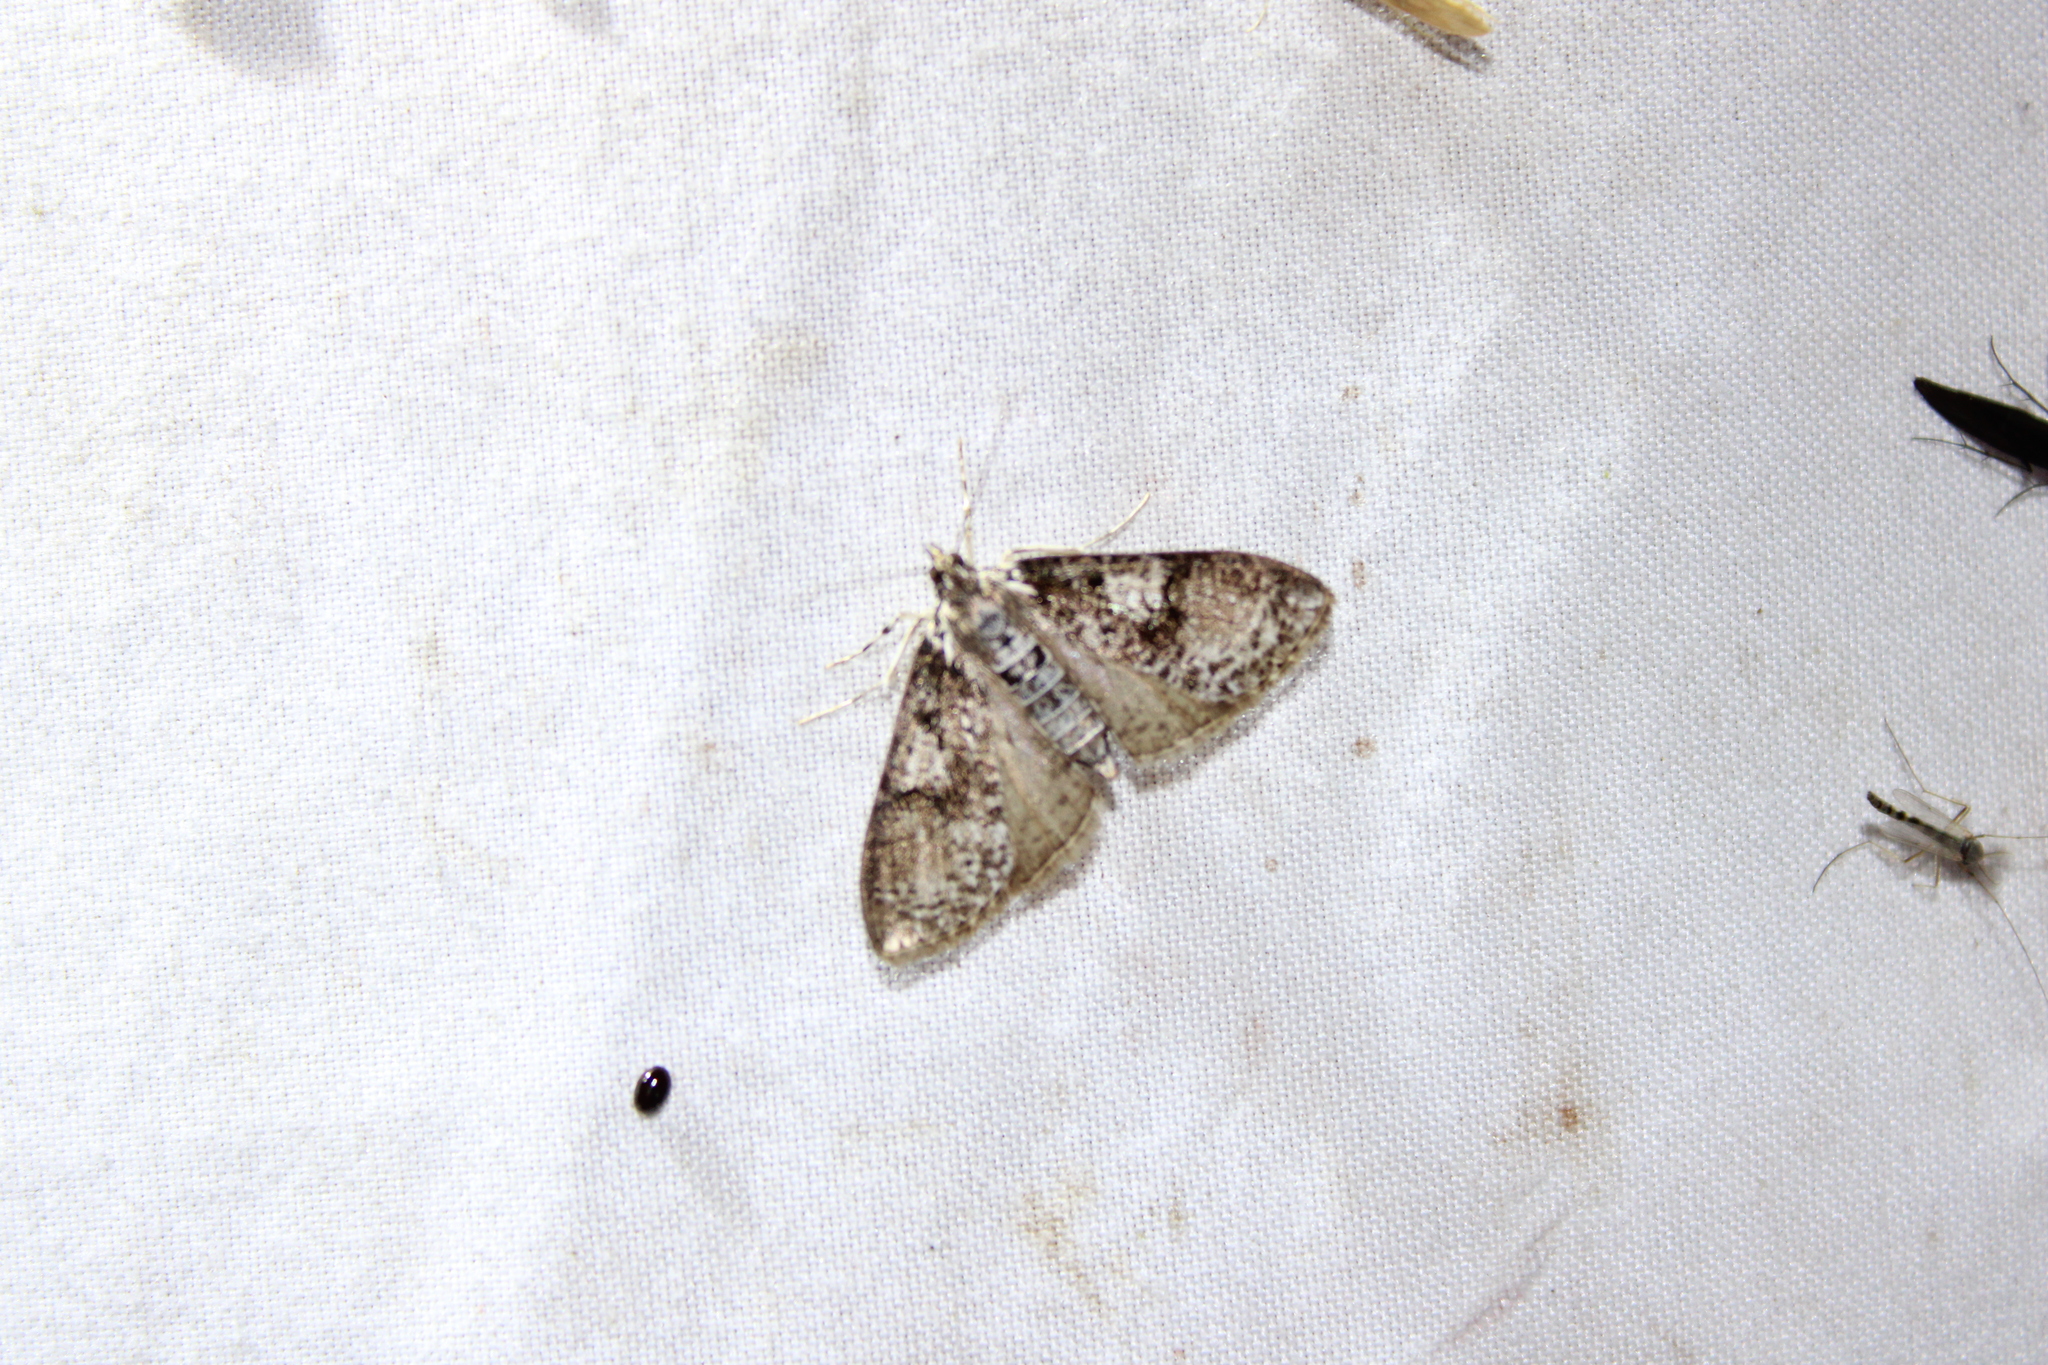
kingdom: Animalia
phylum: Arthropoda
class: Insecta
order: Lepidoptera
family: Crambidae
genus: Palpita
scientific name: Palpita magniferalis
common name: Splendid palpita moth
